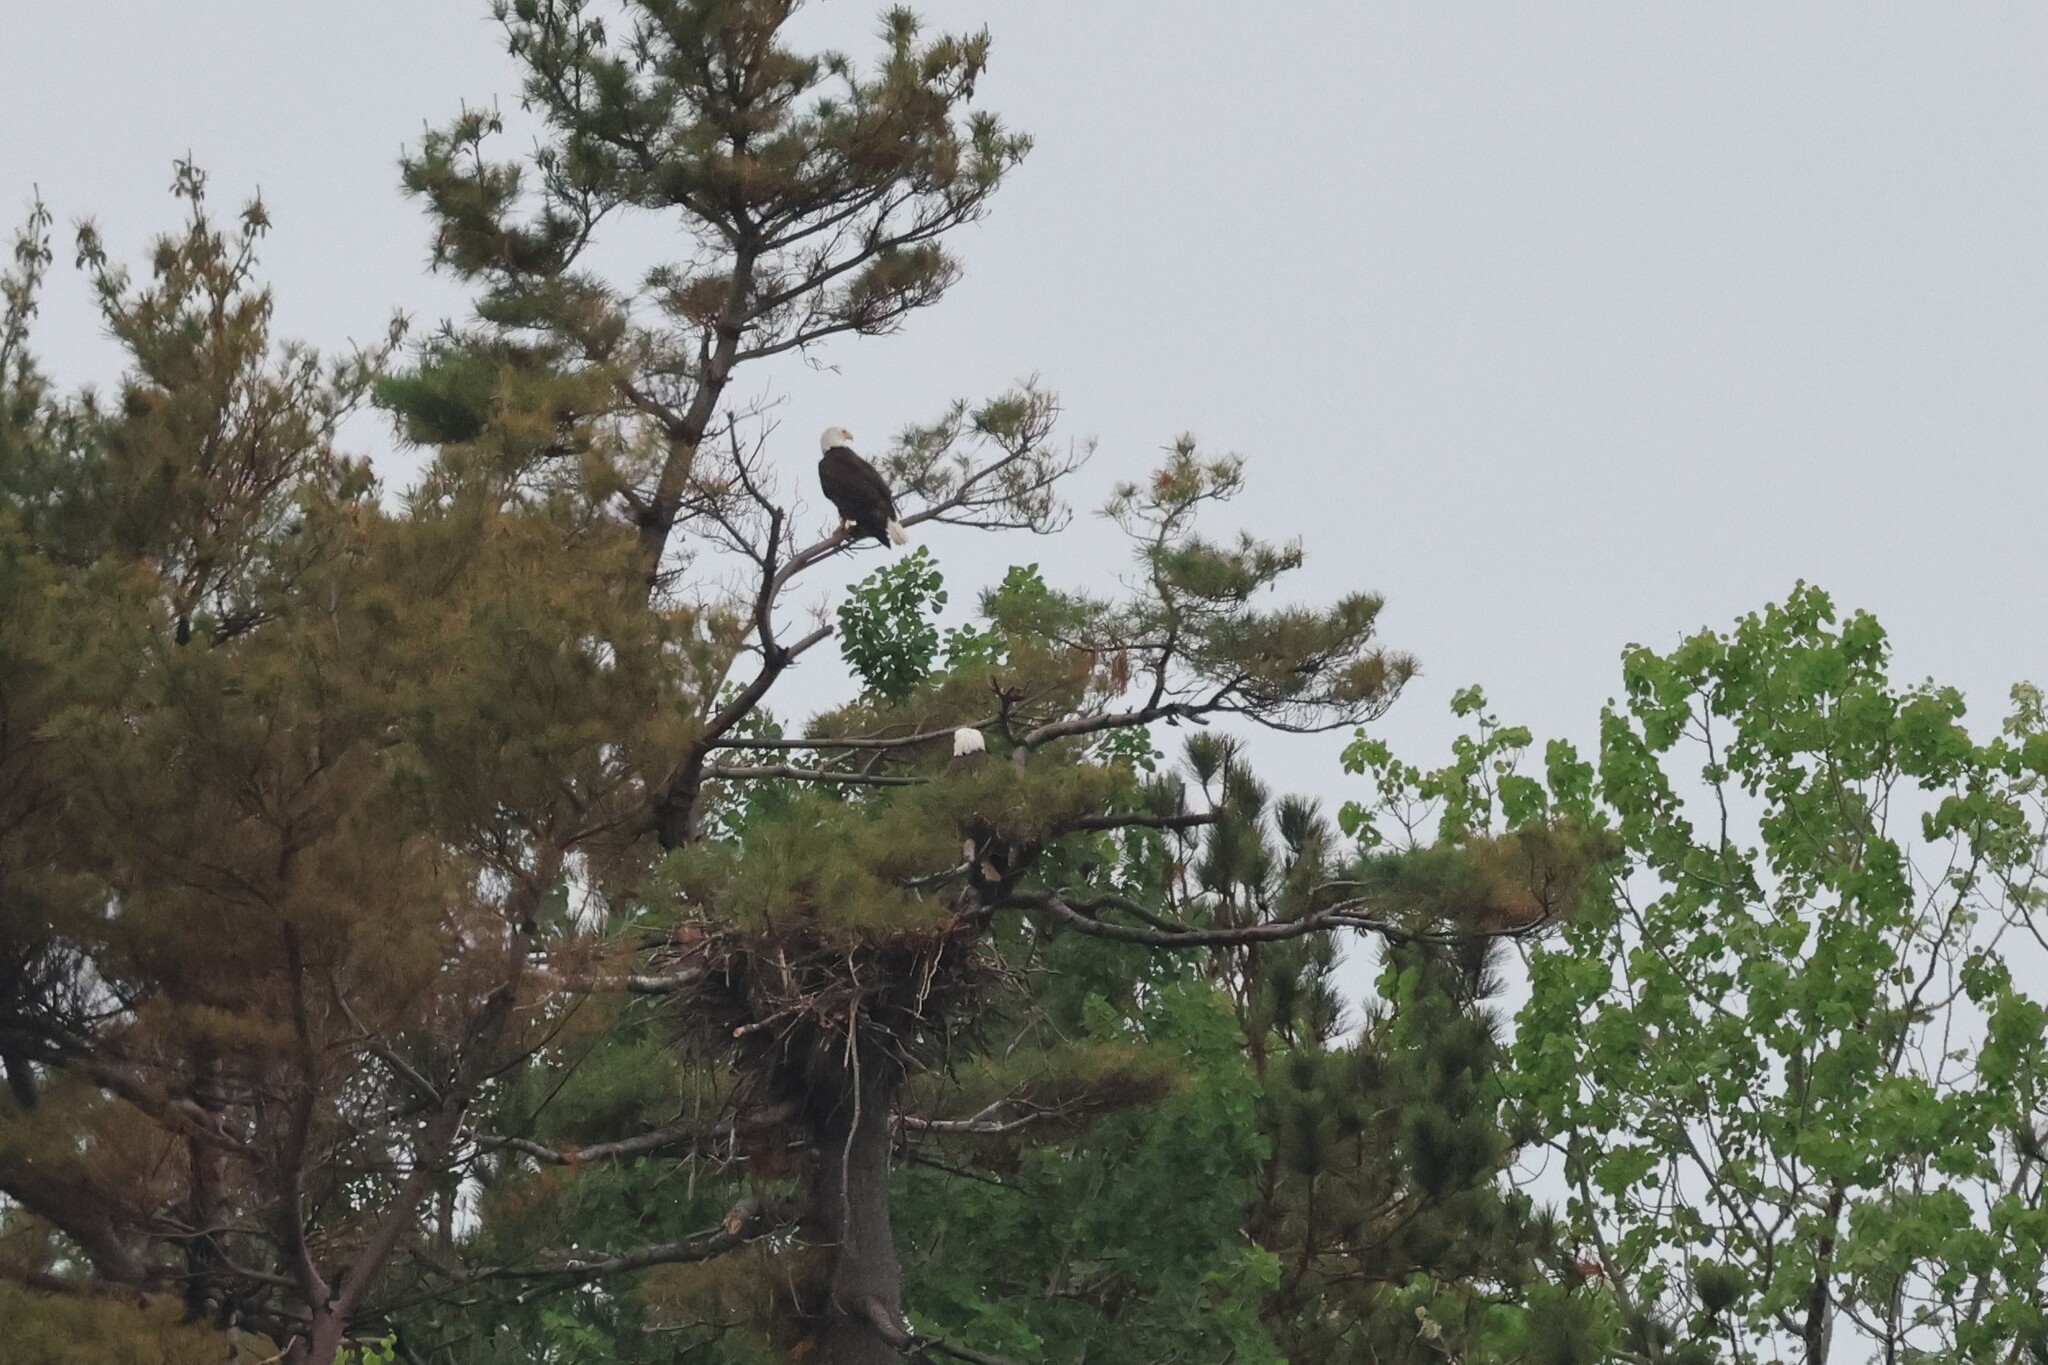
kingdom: Animalia
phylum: Chordata
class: Aves
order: Accipitriformes
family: Accipitridae
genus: Haliaeetus
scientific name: Haliaeetus leucocephalus
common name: Bald eagle
